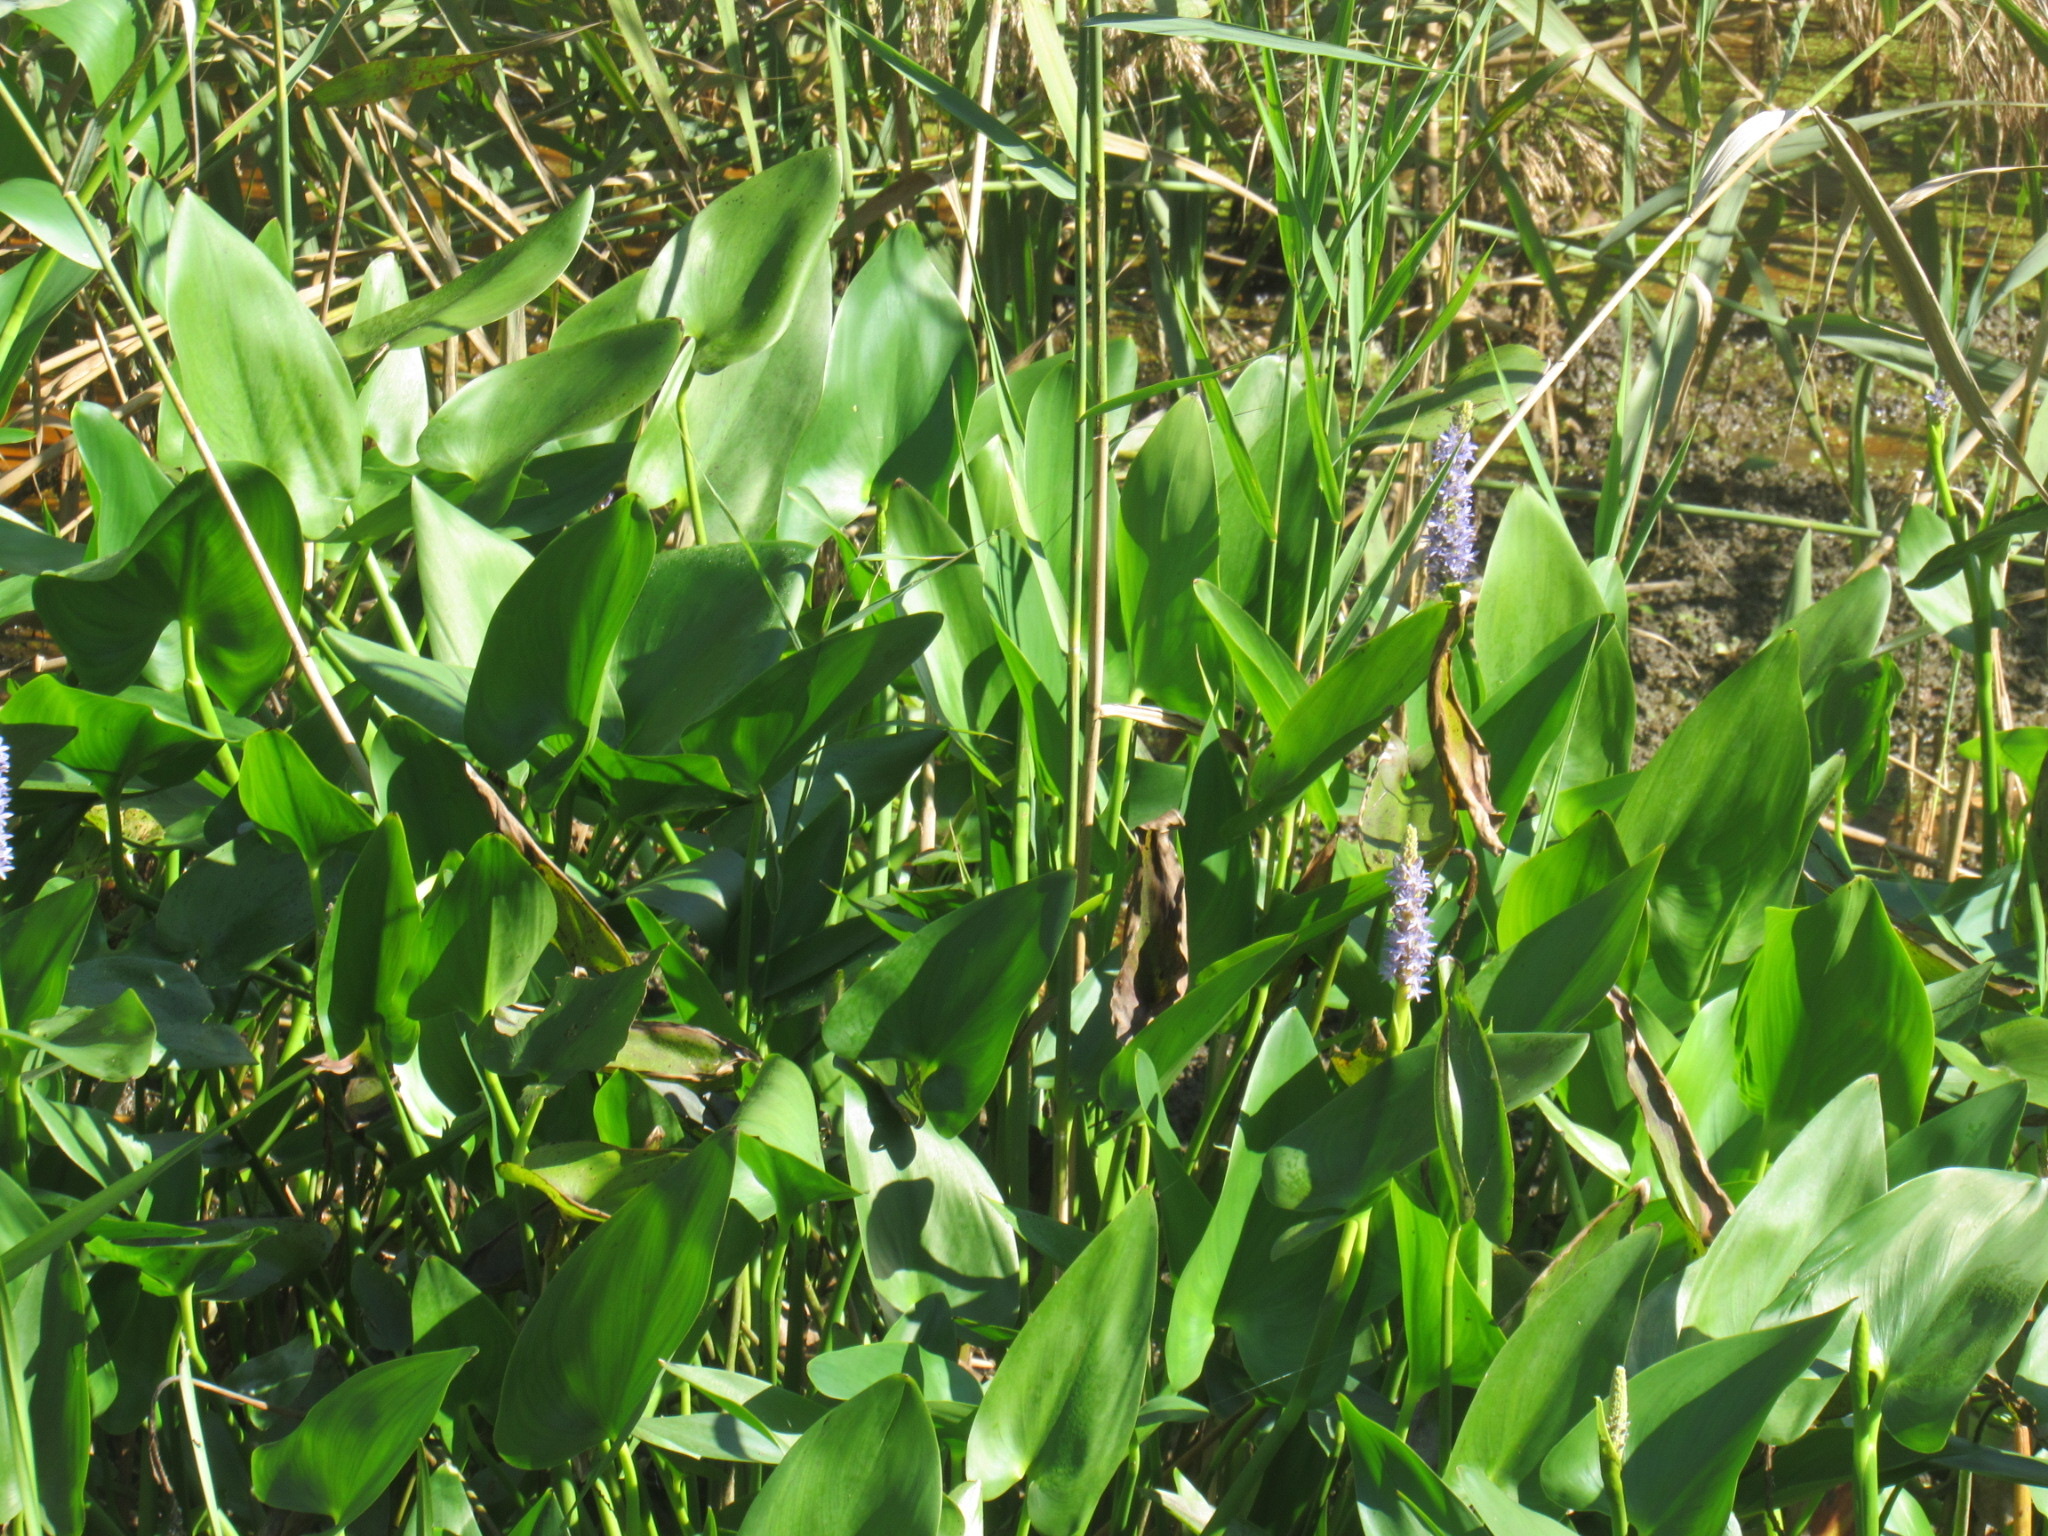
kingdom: Plantae
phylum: Tracheophyta
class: Liliopsida
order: Commelinales
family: Pontederiaceae
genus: Pontederia
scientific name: Pontederia cordata
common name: Pickerelweed
